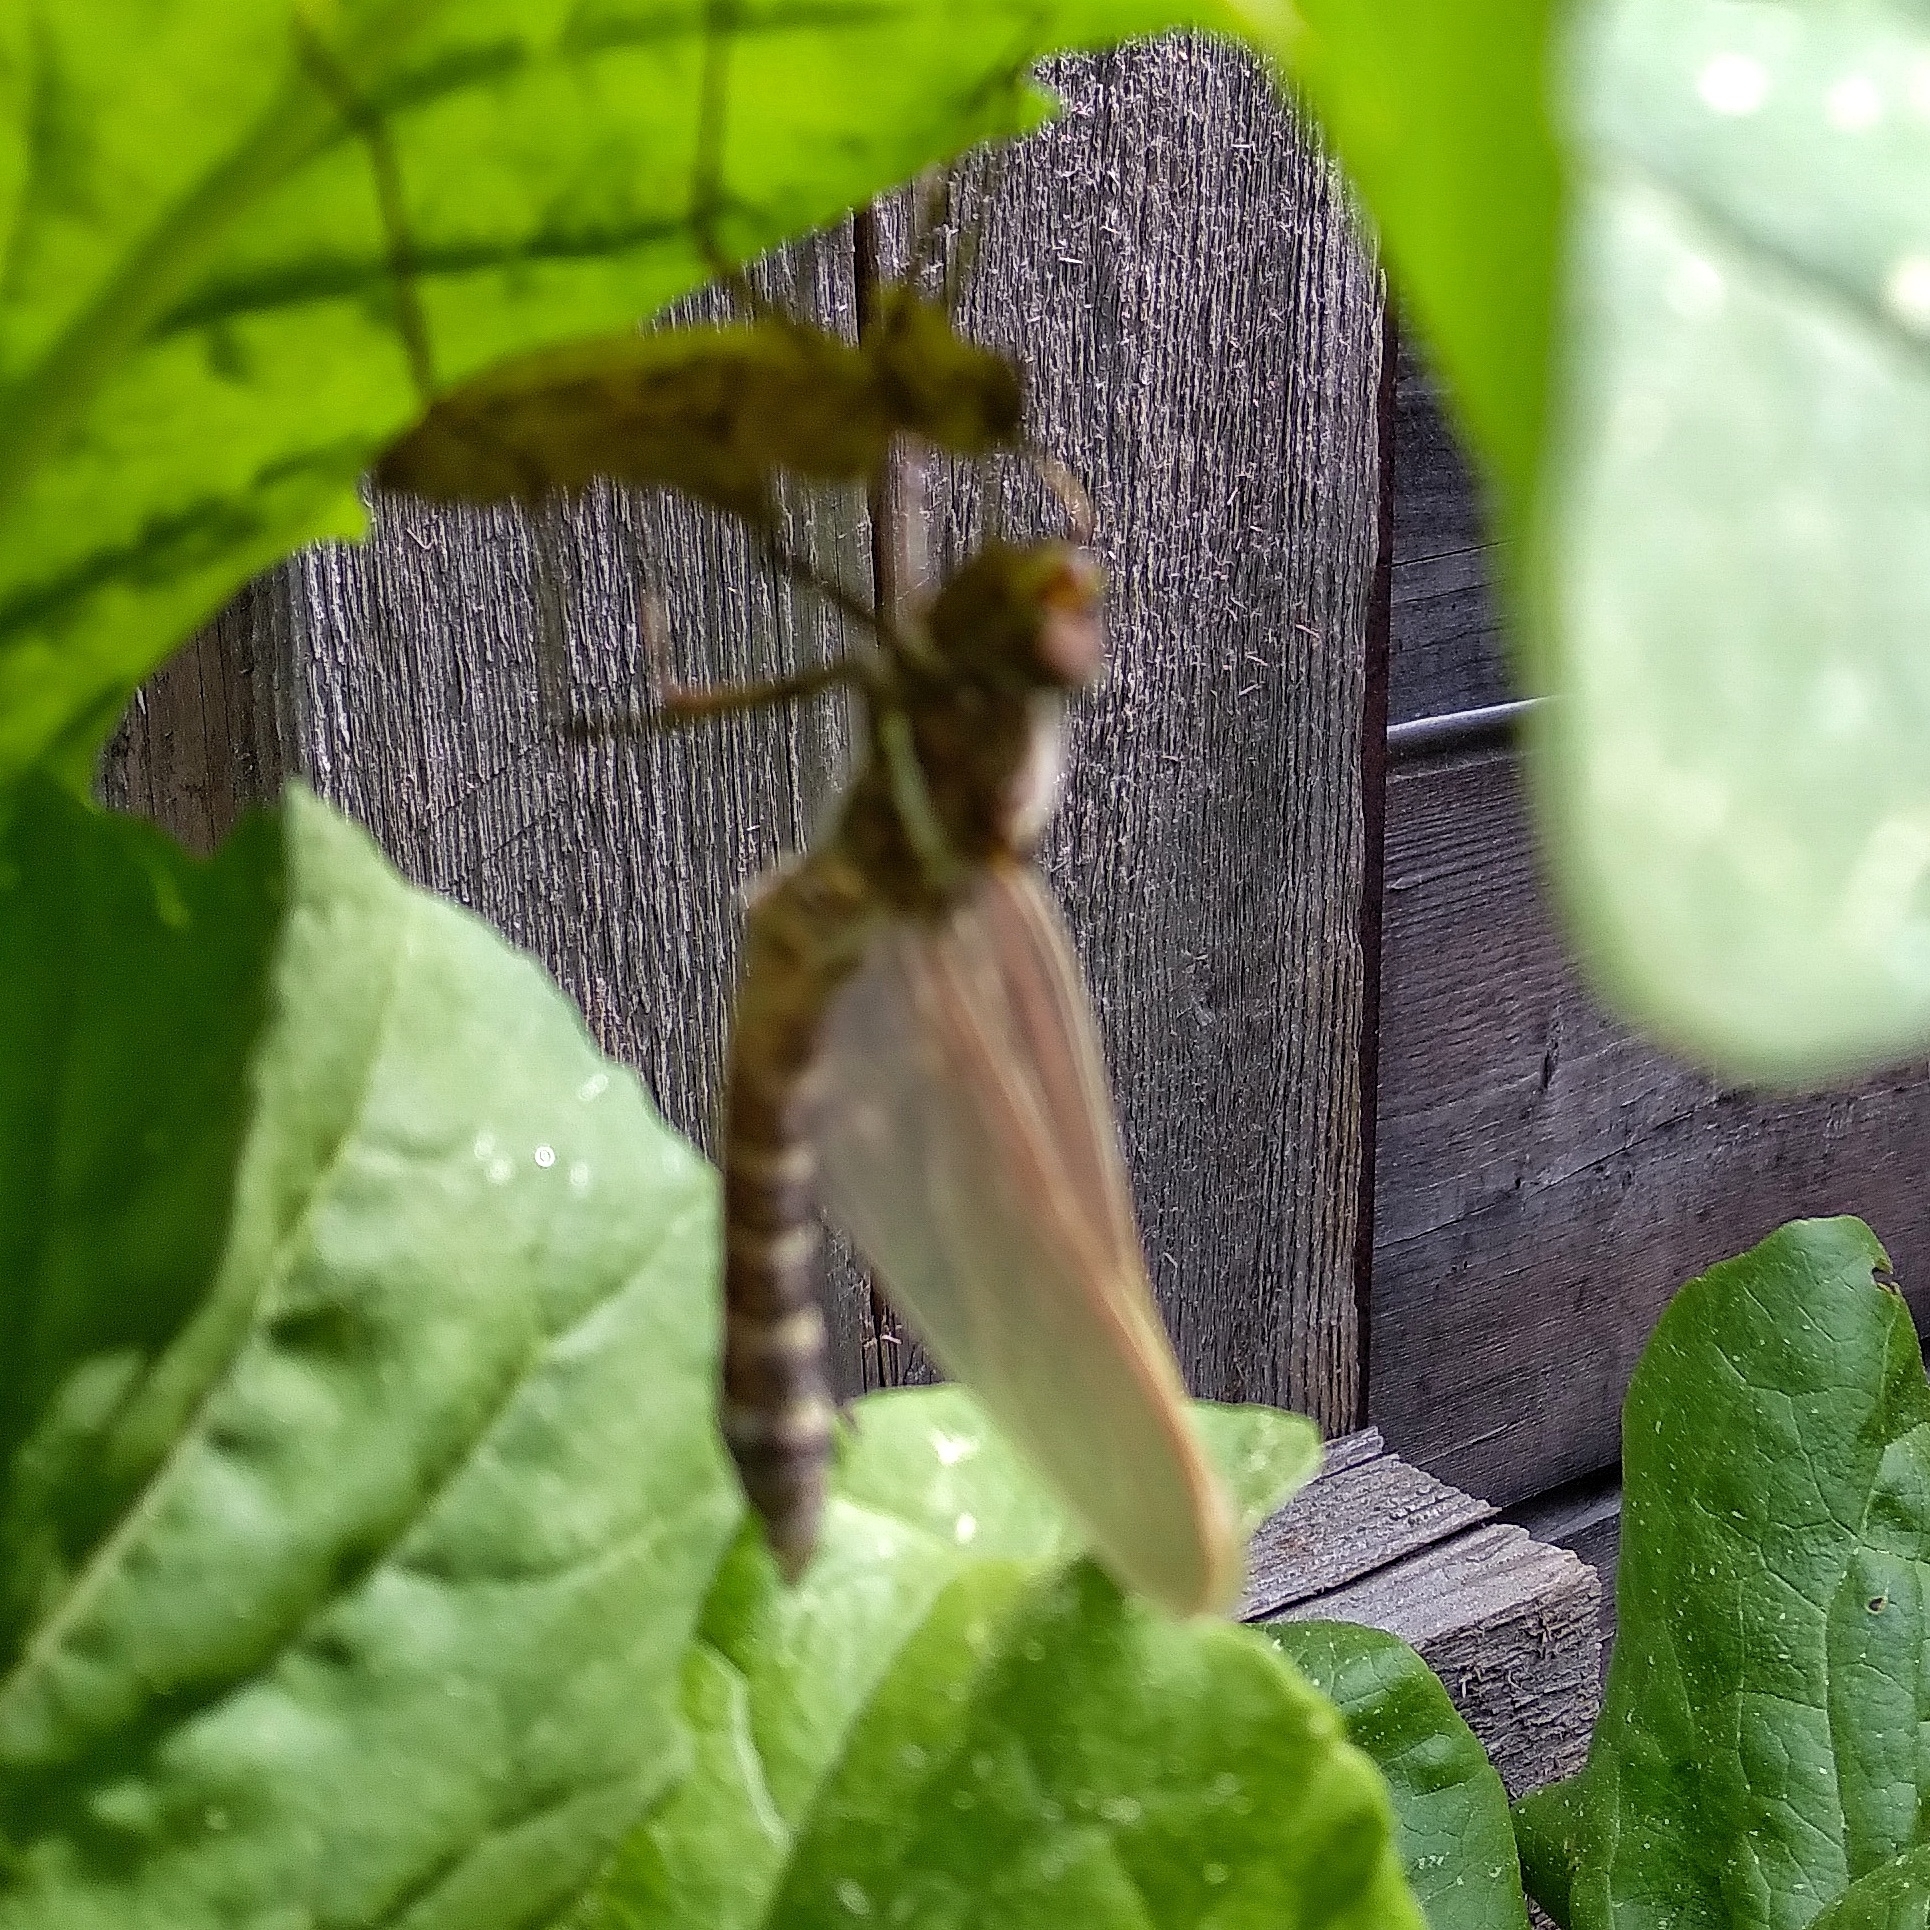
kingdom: Animalia
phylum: Arthropoda
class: Insecta
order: Odonata
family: Macromiidae
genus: Didymops
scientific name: Didymops transversa
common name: Stream cruiser
